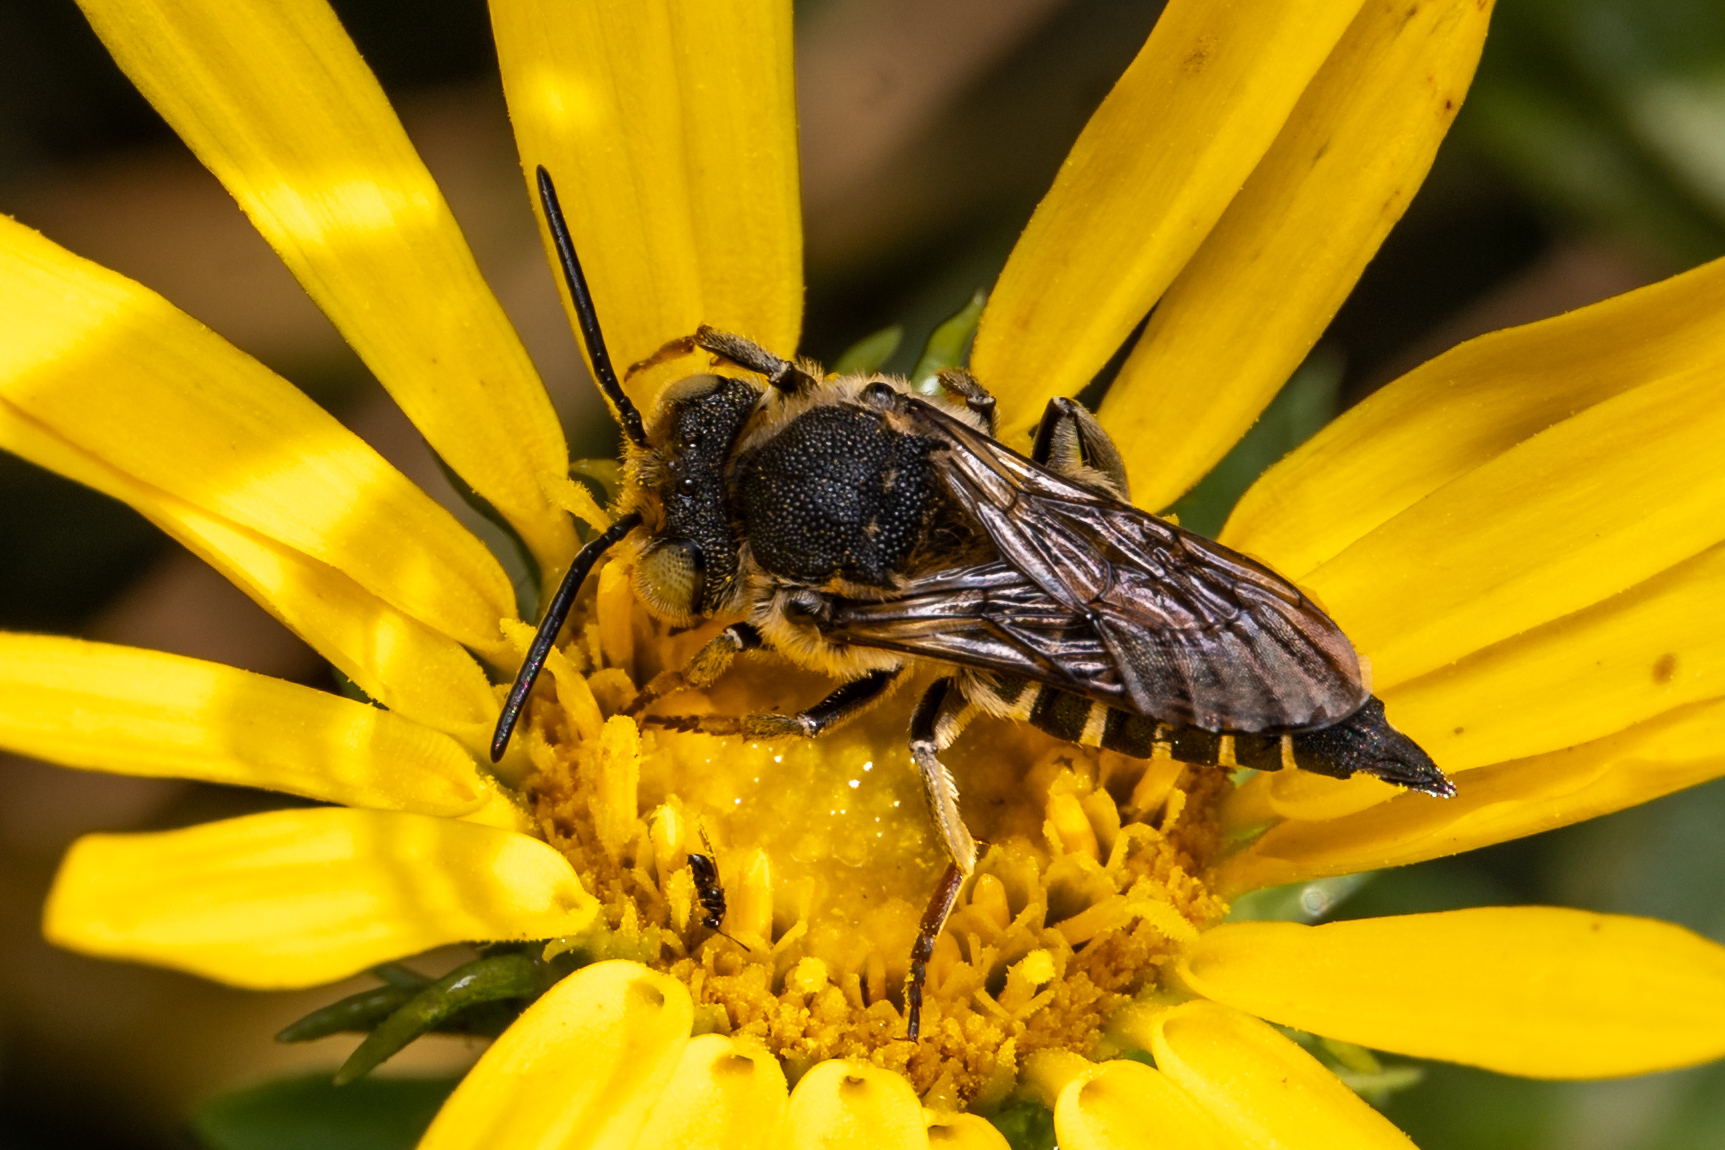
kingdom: Animalia
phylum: Arthropoda
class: Insecta
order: Hymenoptera
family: Megachilidae
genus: Coelioxys
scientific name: Coelioxys rufitarsis
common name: Red-footed sharptail
